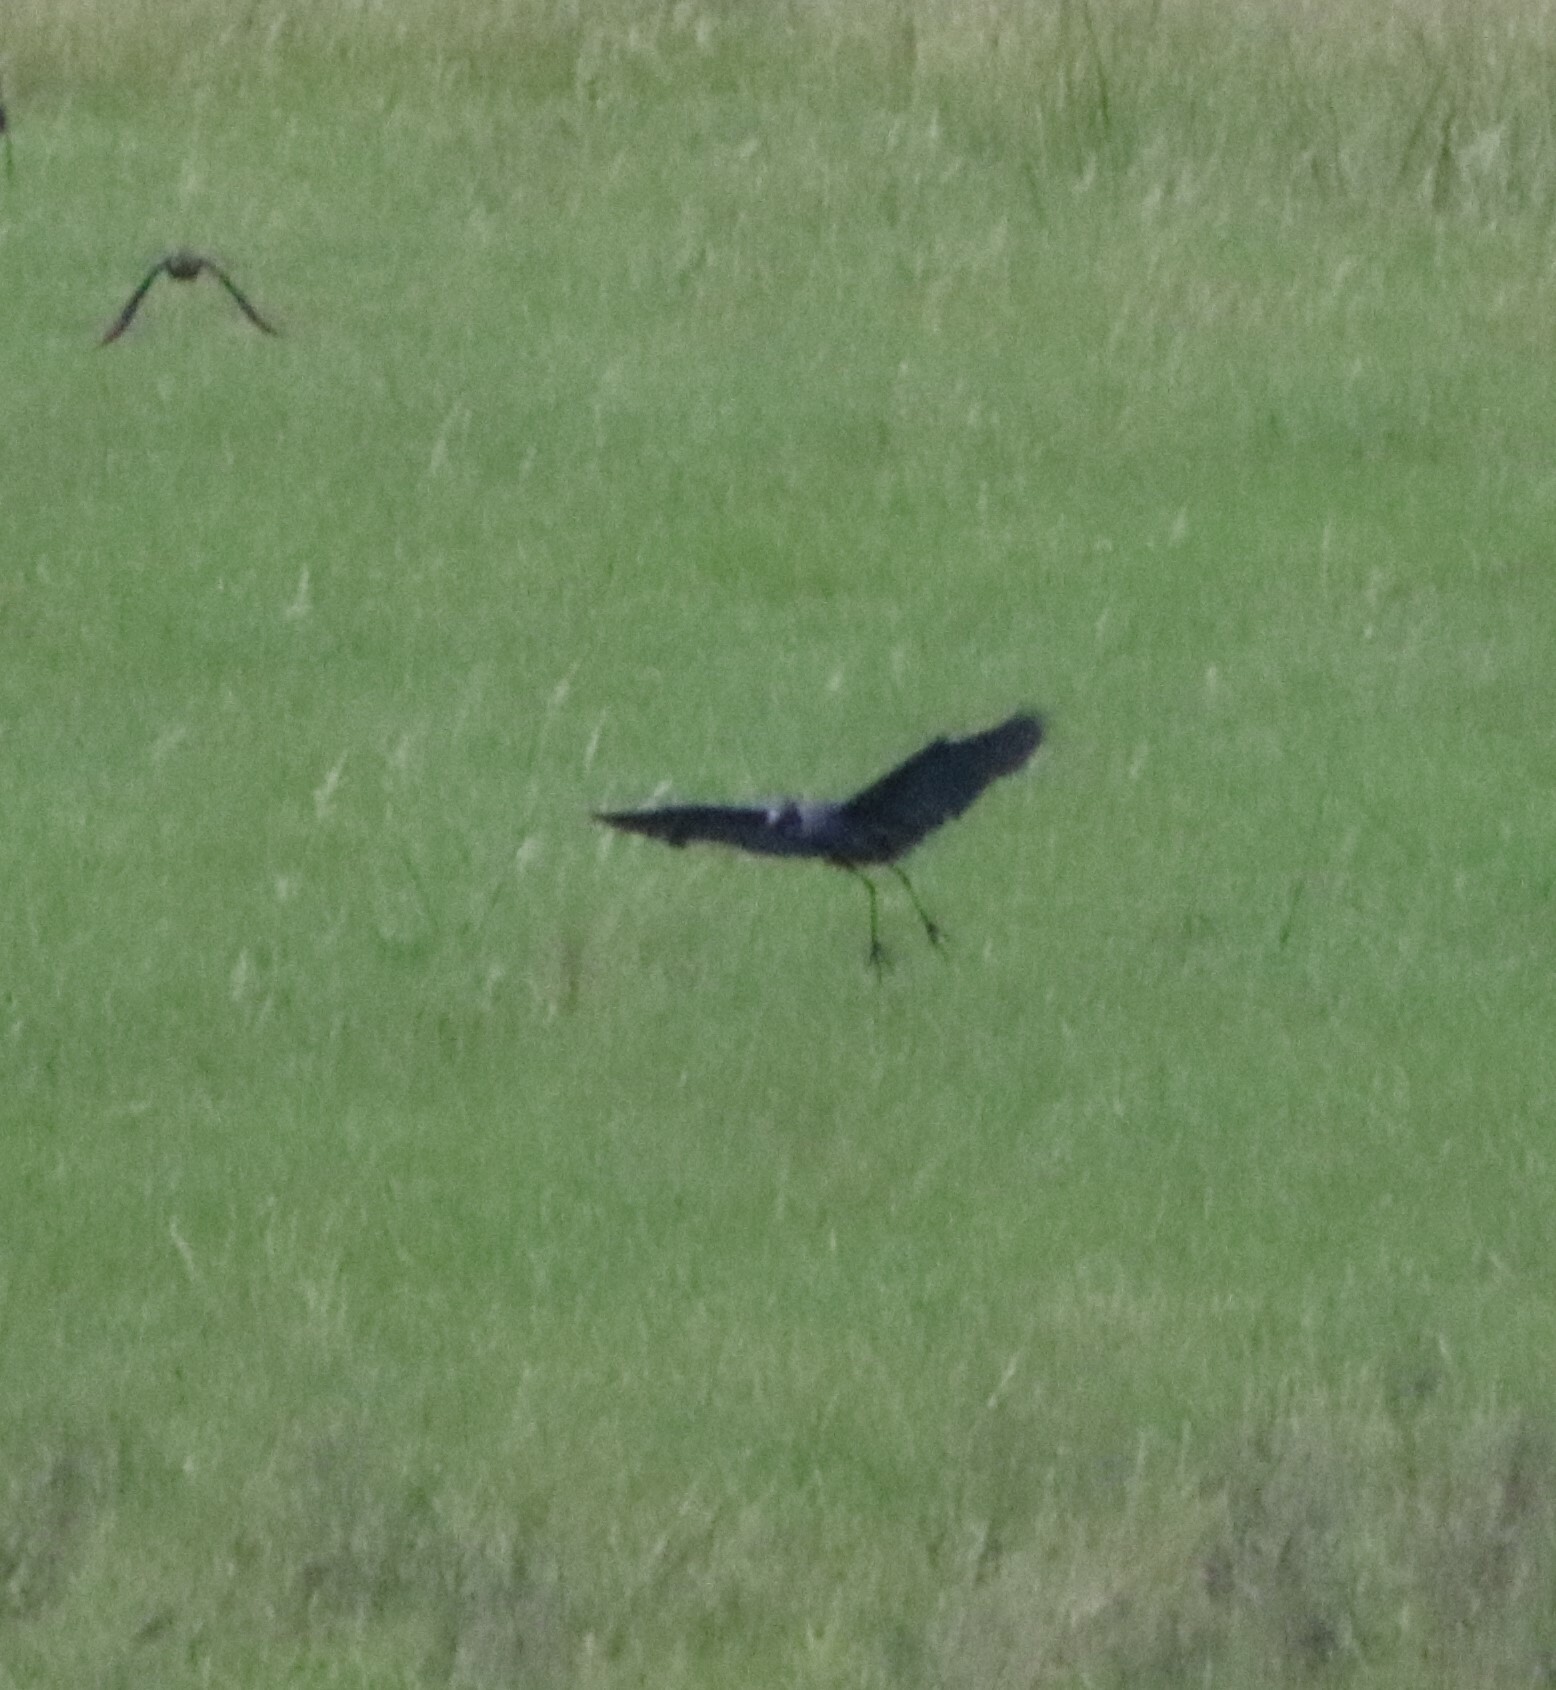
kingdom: Animalia
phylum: Chordata
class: Aves
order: Pelecaniformes
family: Ardeidae
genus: Egretta
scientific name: Egretta caerulea
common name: Little blue heron
